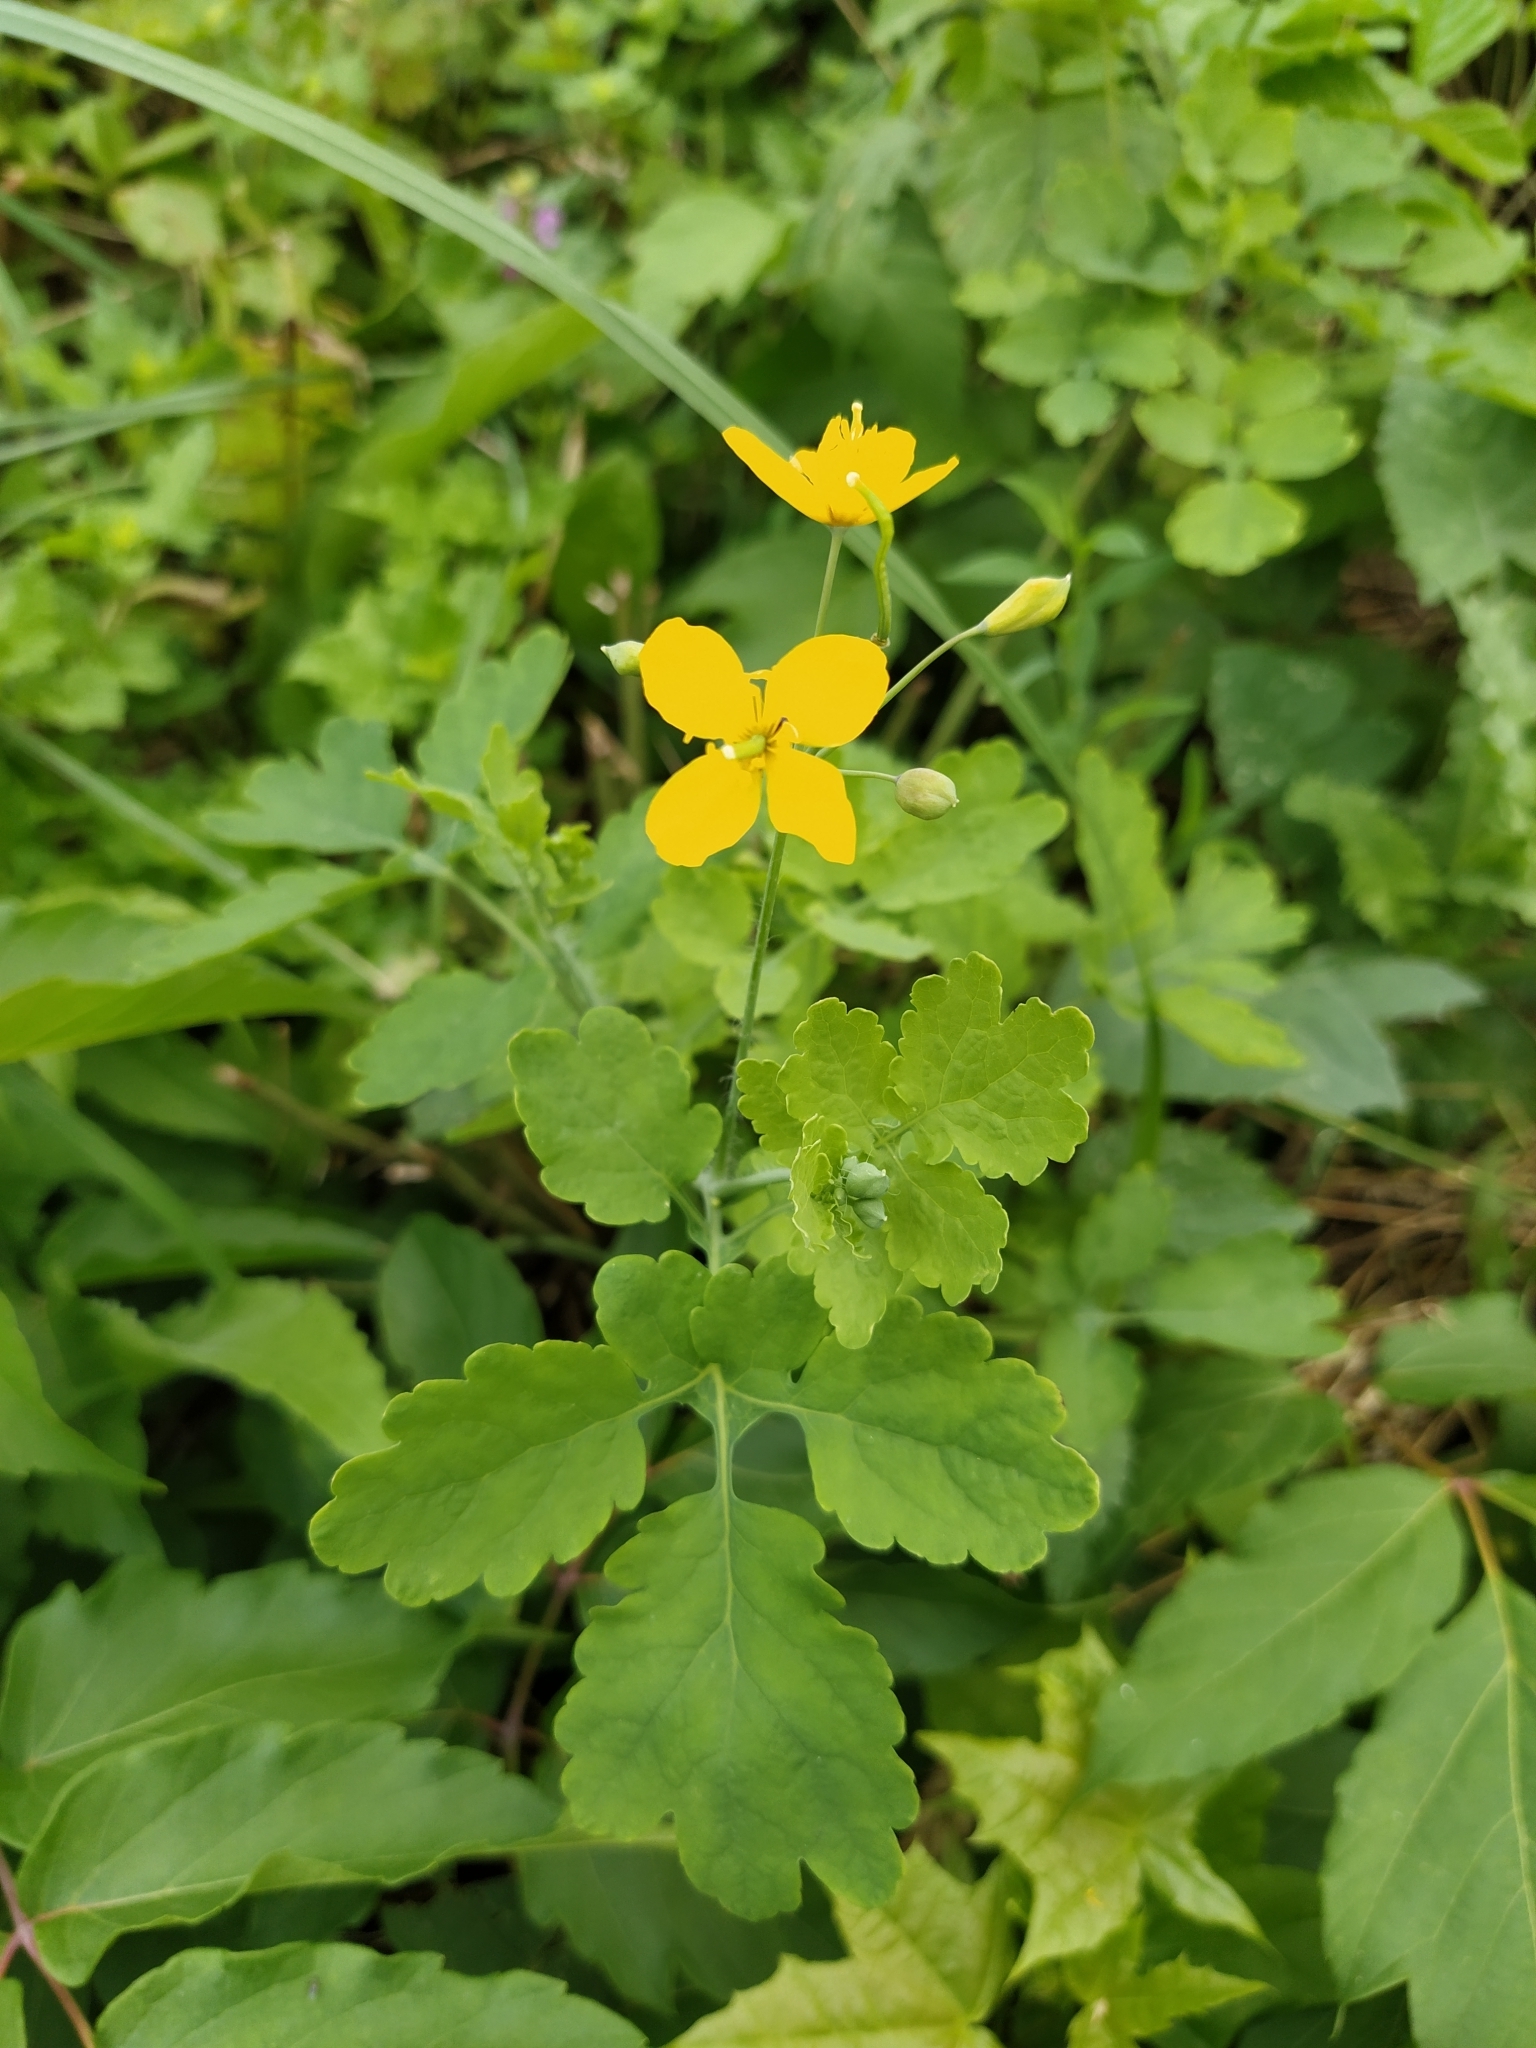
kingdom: Plantae
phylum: Tracheophyta
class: Magnoliopsida
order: Ranunculales
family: Papaveraceae
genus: Chelidonium
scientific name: Chelidonium majus
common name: Greater celandine
